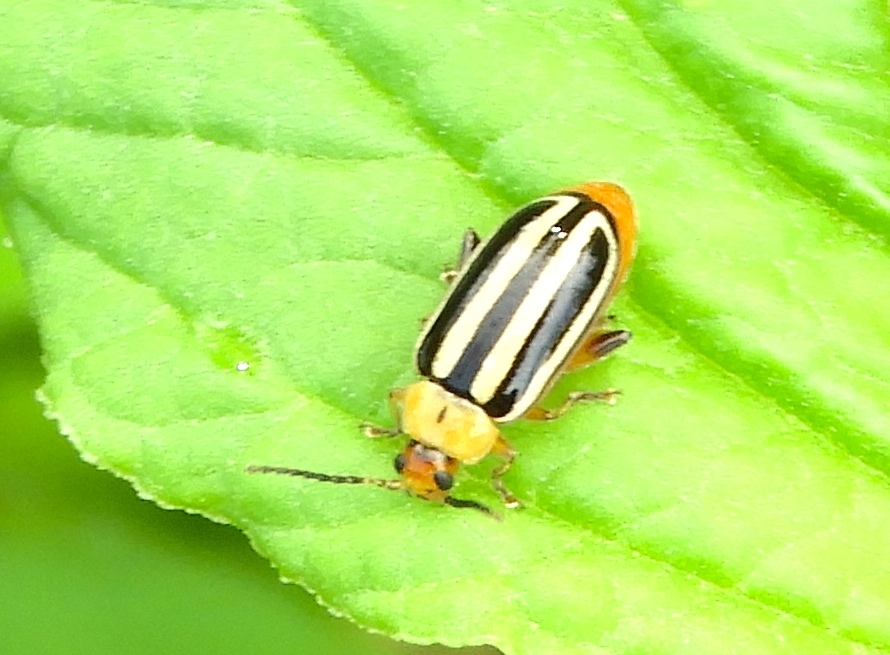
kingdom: Animalia
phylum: Arthropoda
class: Insecta
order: Coleoptera
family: Chrysomelidae
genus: Disonycha
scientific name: Disonycha glabrata
